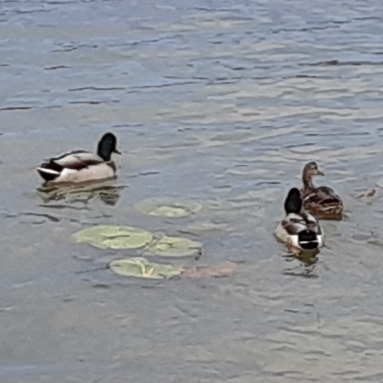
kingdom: Animalia
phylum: Chordata
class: Aves
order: Anseriformes
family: Anatidae
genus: Anas
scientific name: Anas platyrhynchos
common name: Mallard
